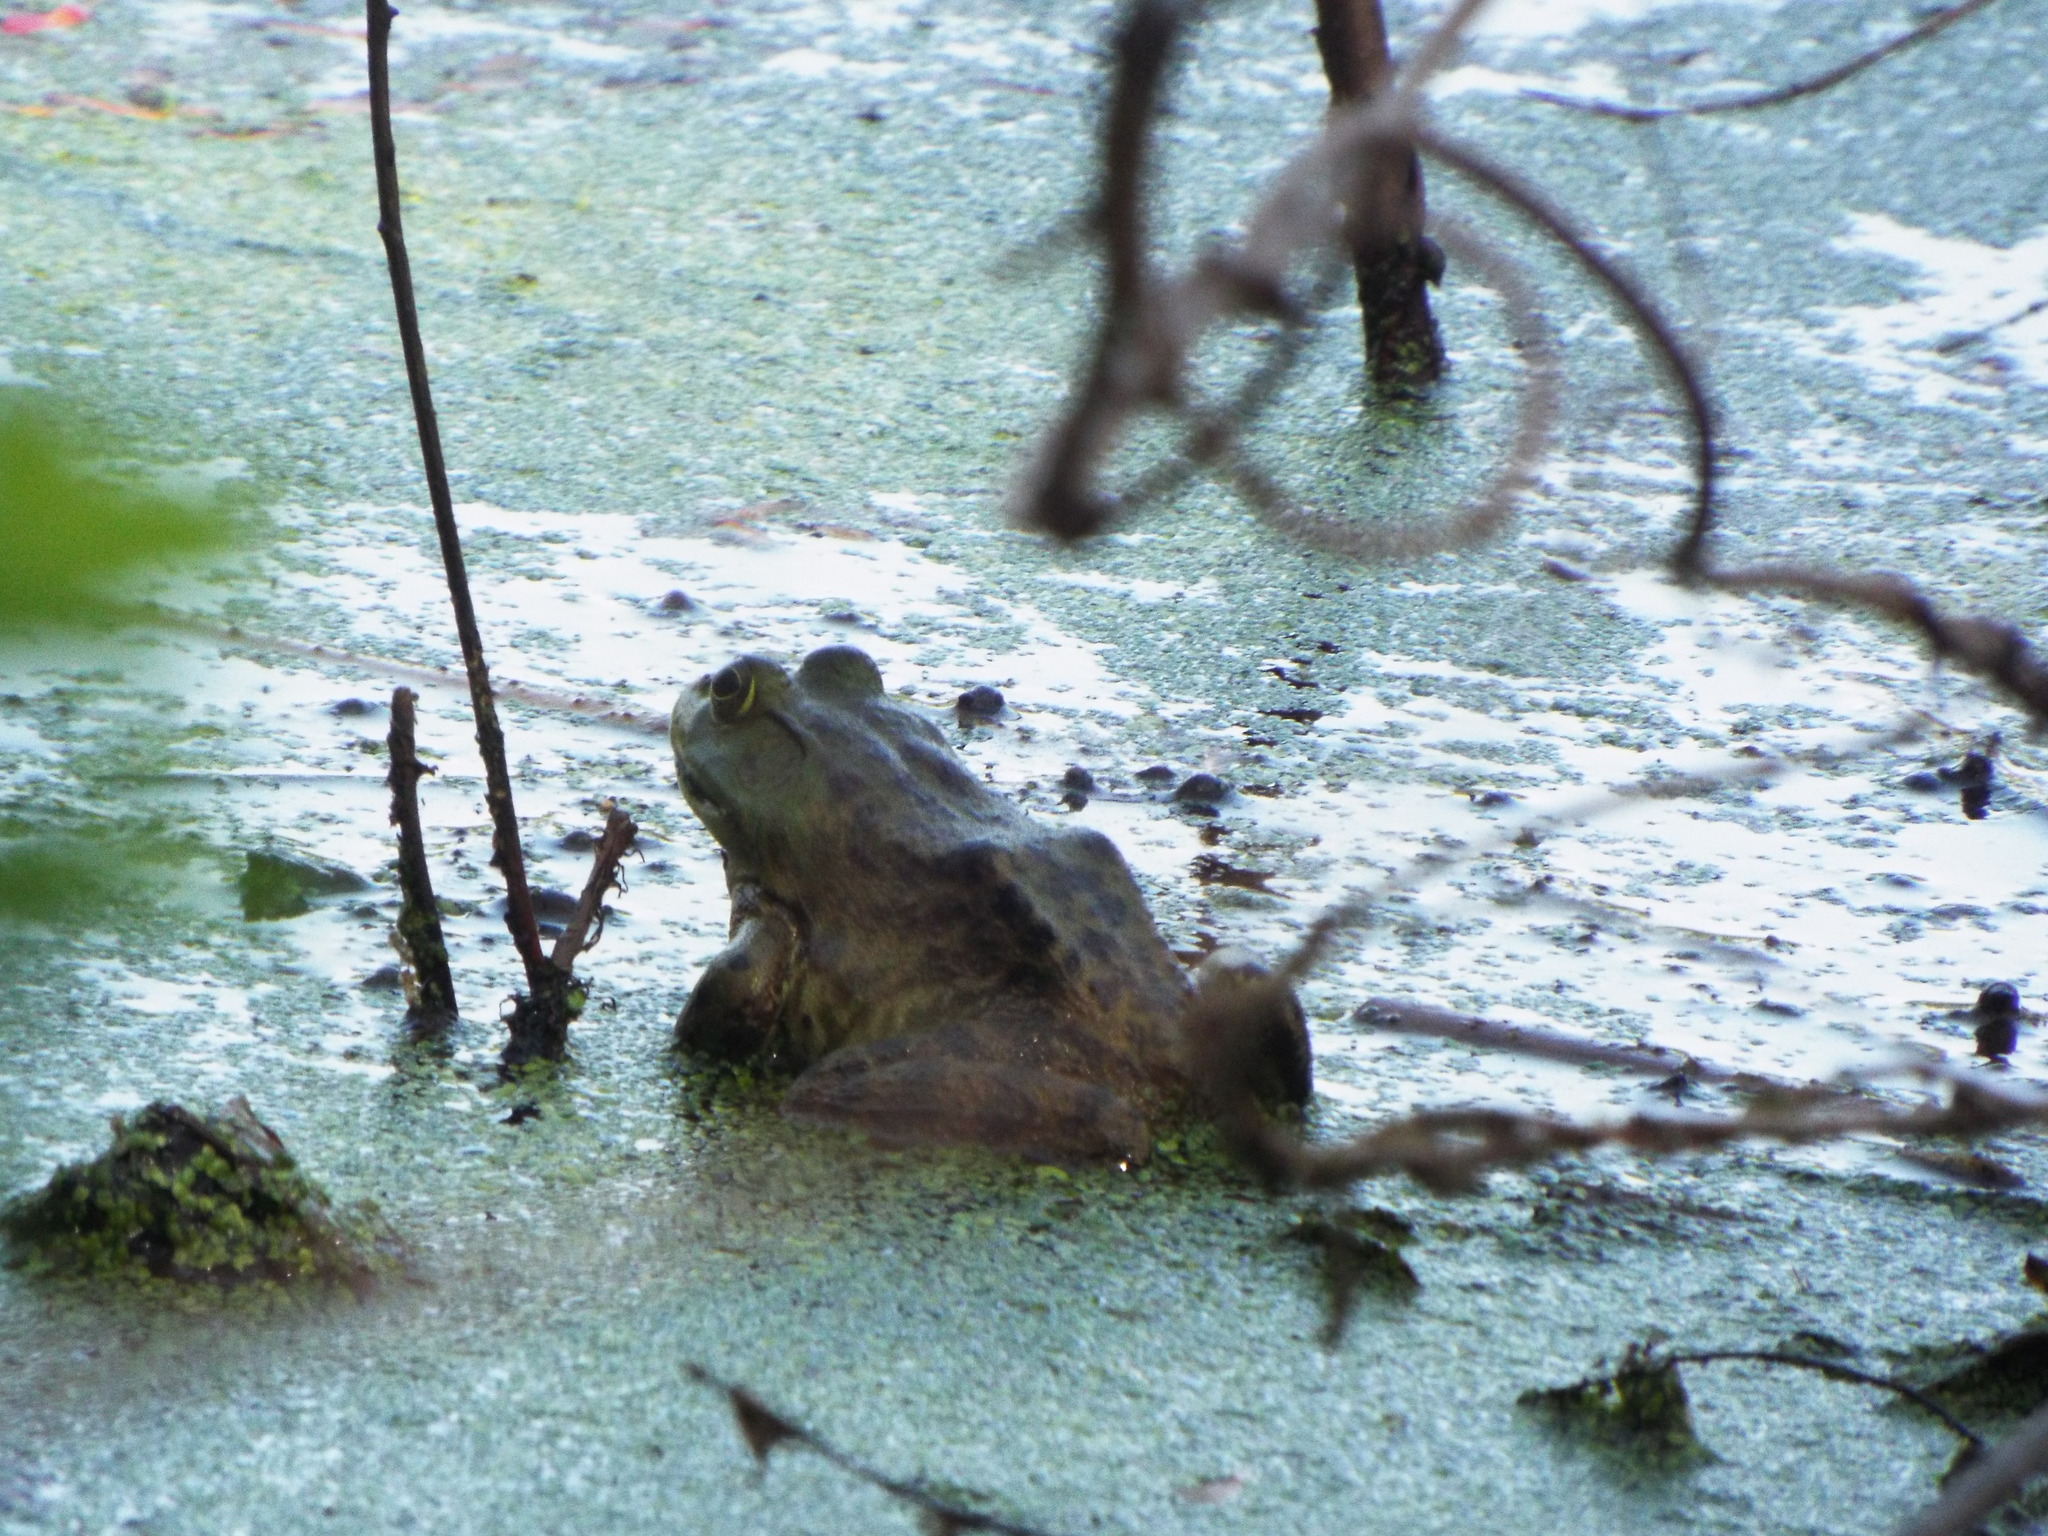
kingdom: Animalia
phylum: Chordata
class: Amphibia
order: Anura
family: Ranidae
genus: Lithobates
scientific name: Lithobates catesbeianus
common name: American bullfrog
